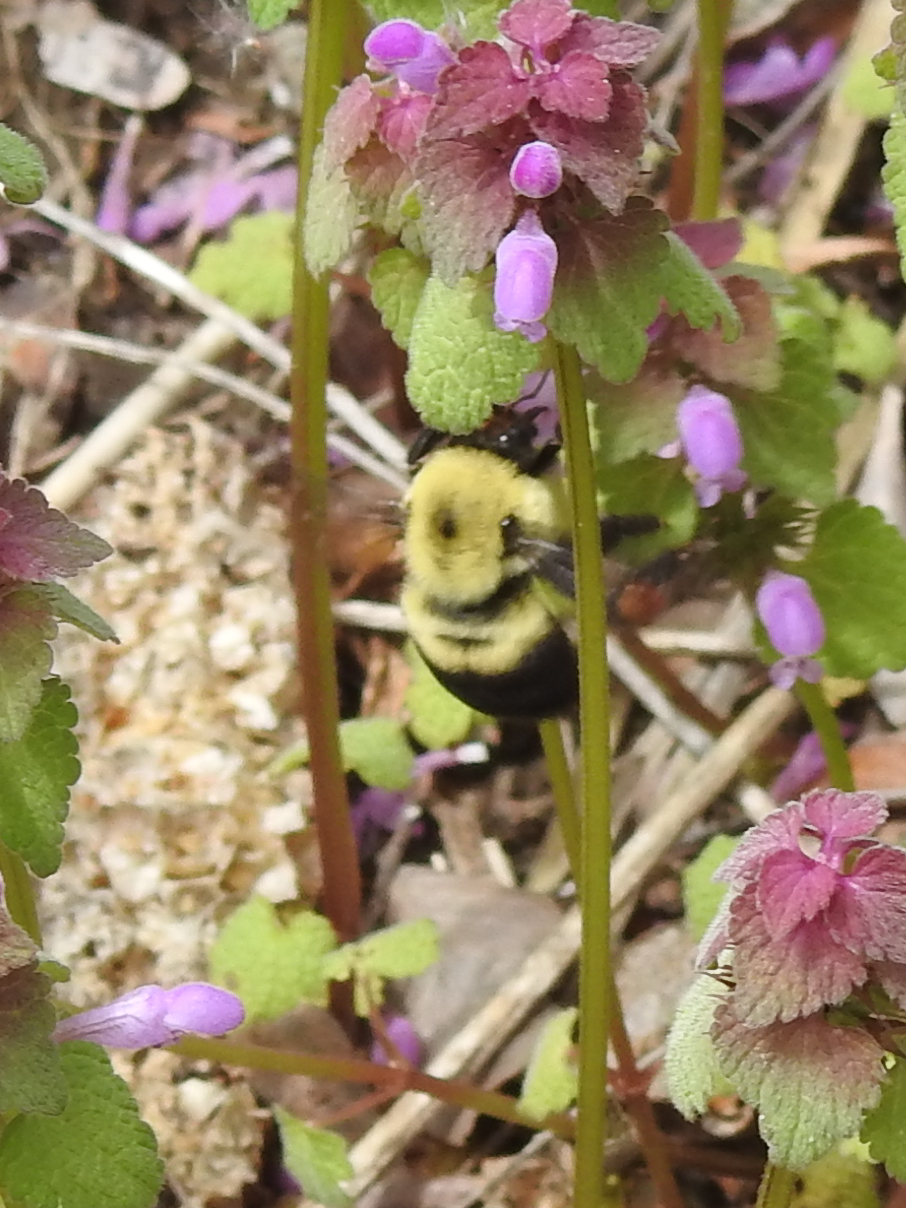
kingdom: Animalia
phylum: Arthropoda
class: Insecta
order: Hymenoptera
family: Apidae
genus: Bombus
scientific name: Bombus griseocollis
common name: Brown-belted bumble bee
